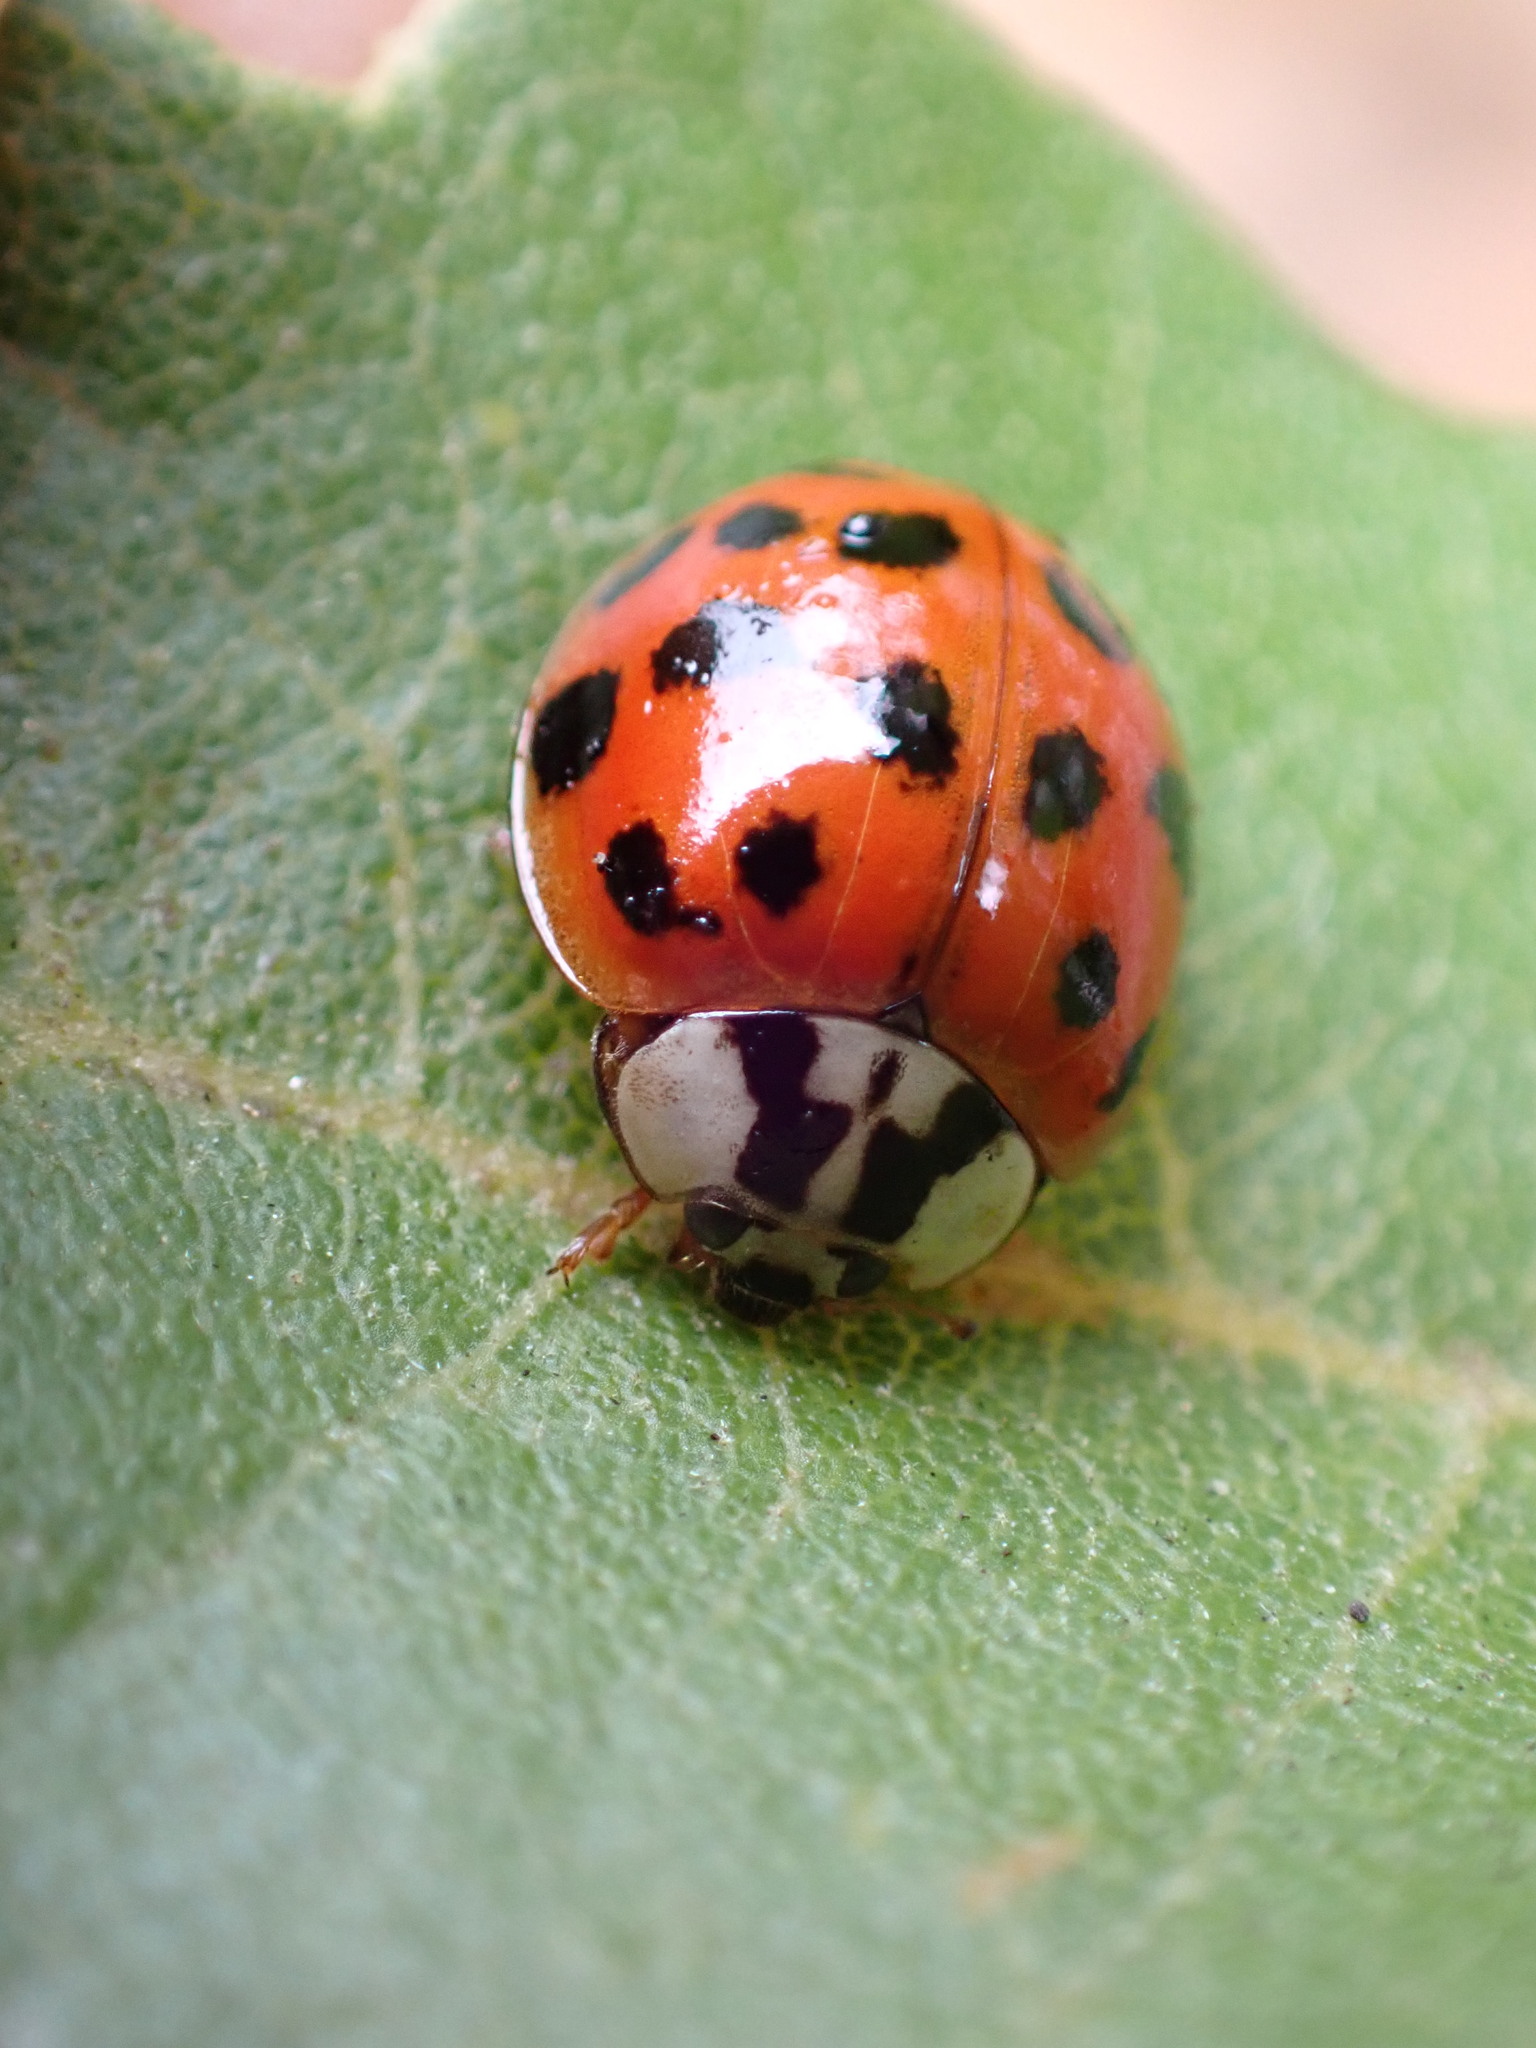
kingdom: Animalia
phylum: Arthropoda
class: Insecta
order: Coleoptera
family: Coccinellidae
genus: Harmonia
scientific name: Harmonia axyridis
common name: Harlequin ladybird
